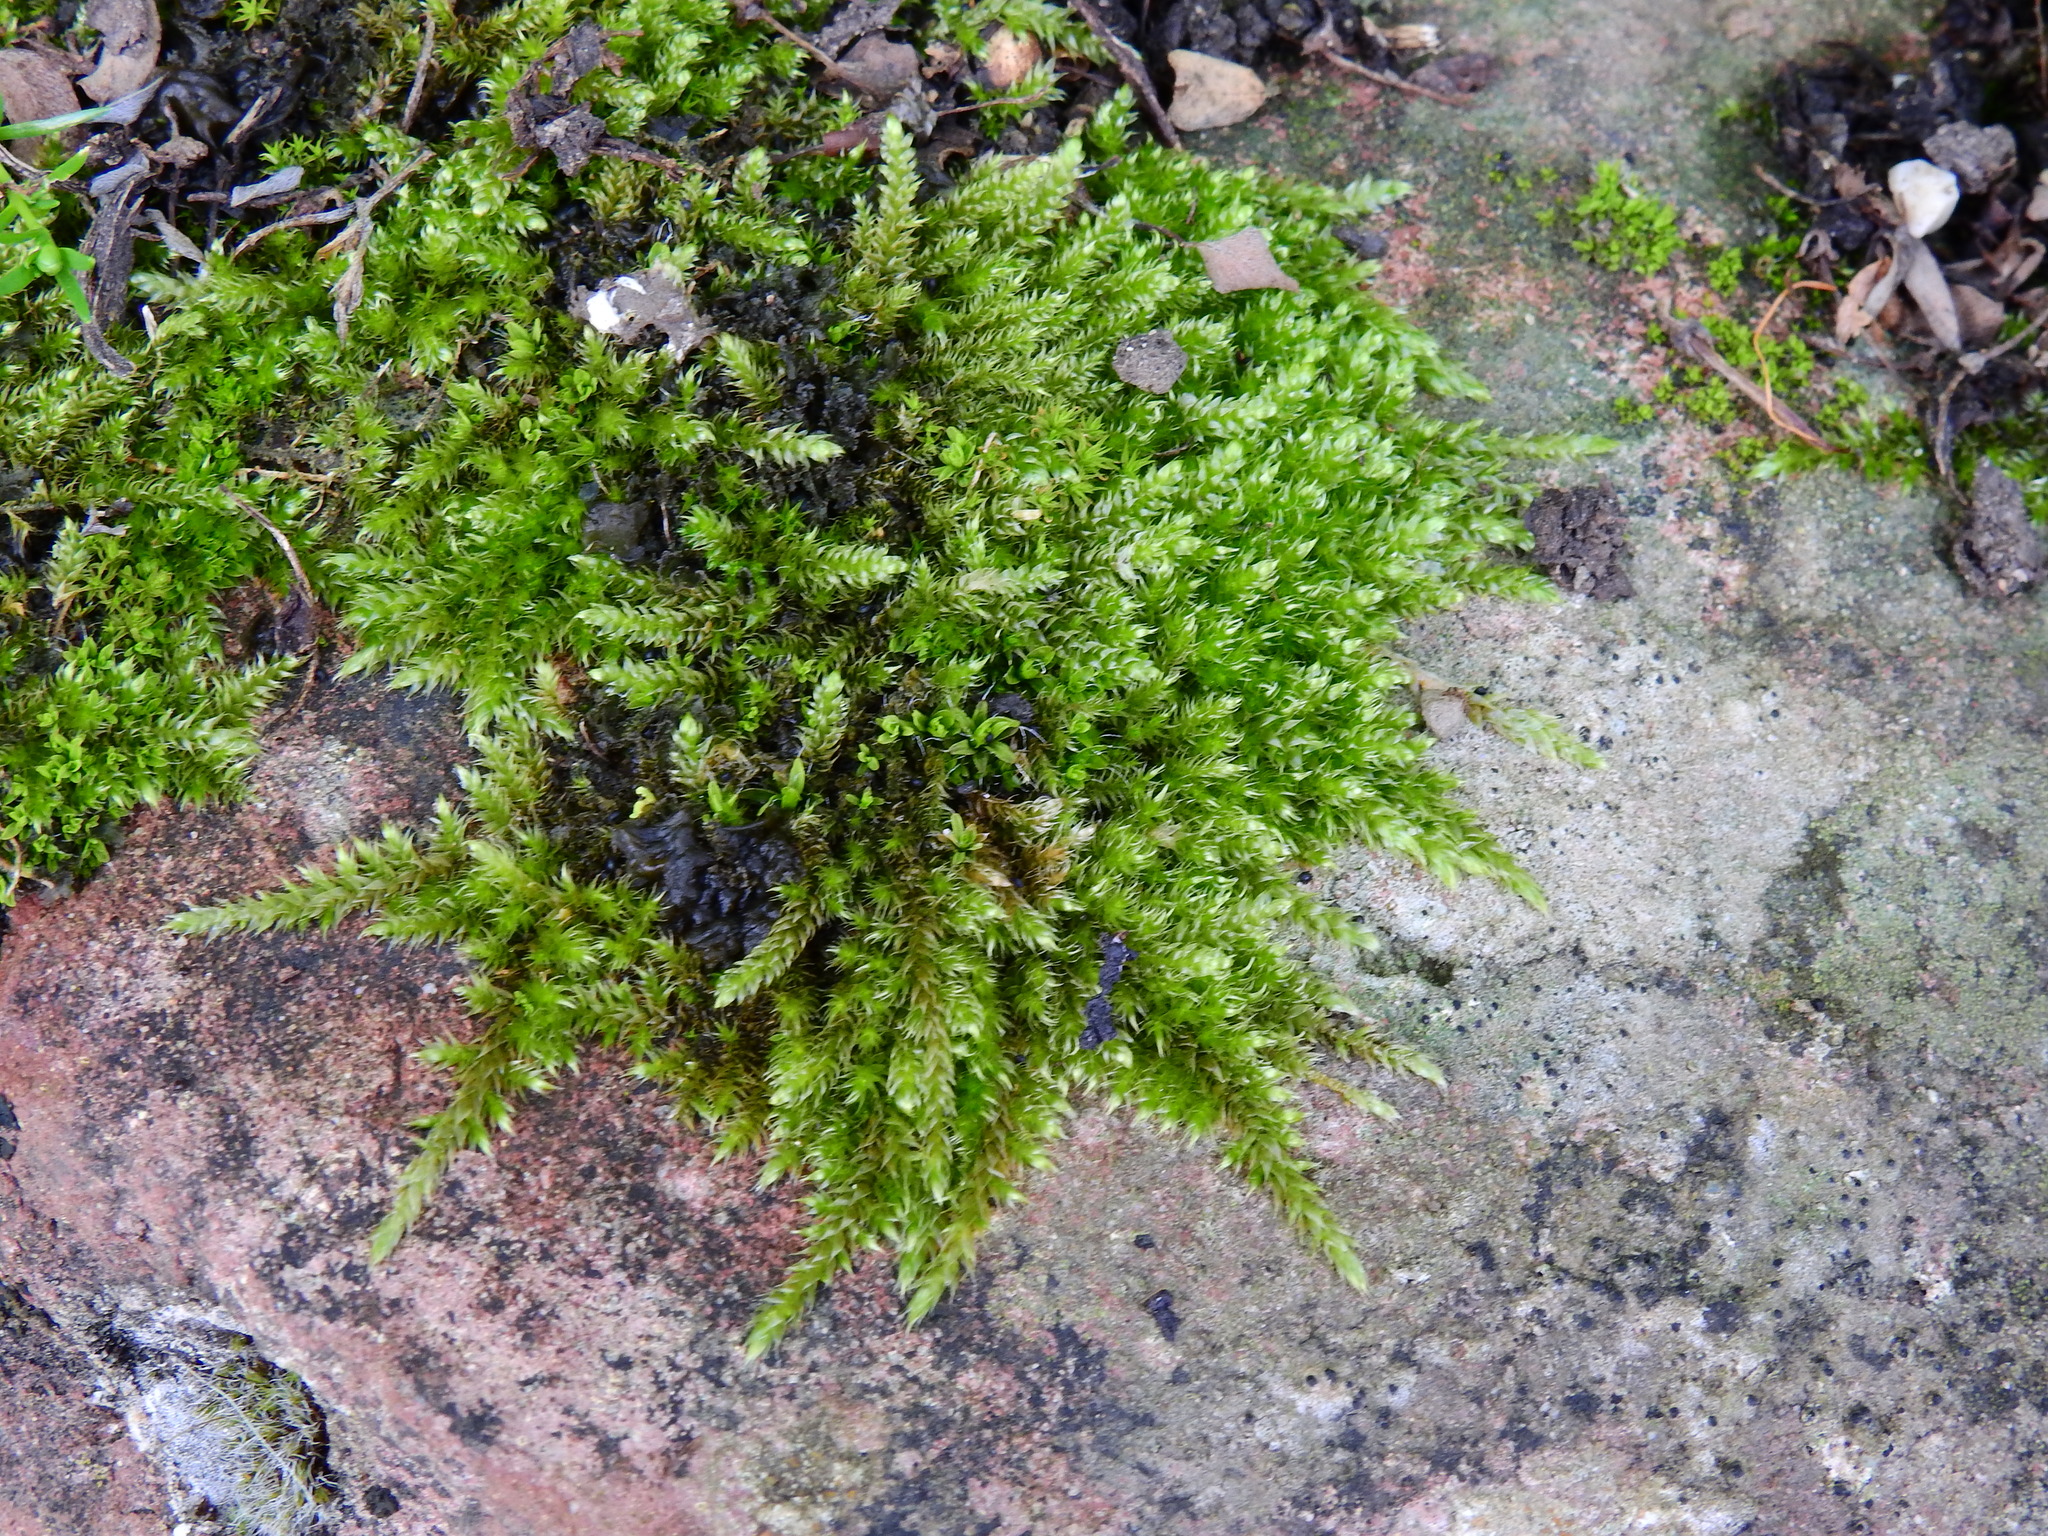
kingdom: Plantae
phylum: Bryophyta
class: Bryopsida
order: Hypnales
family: Hypnaceae
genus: Hypnum
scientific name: Hypnum resupinatum
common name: Supine plait-moss
